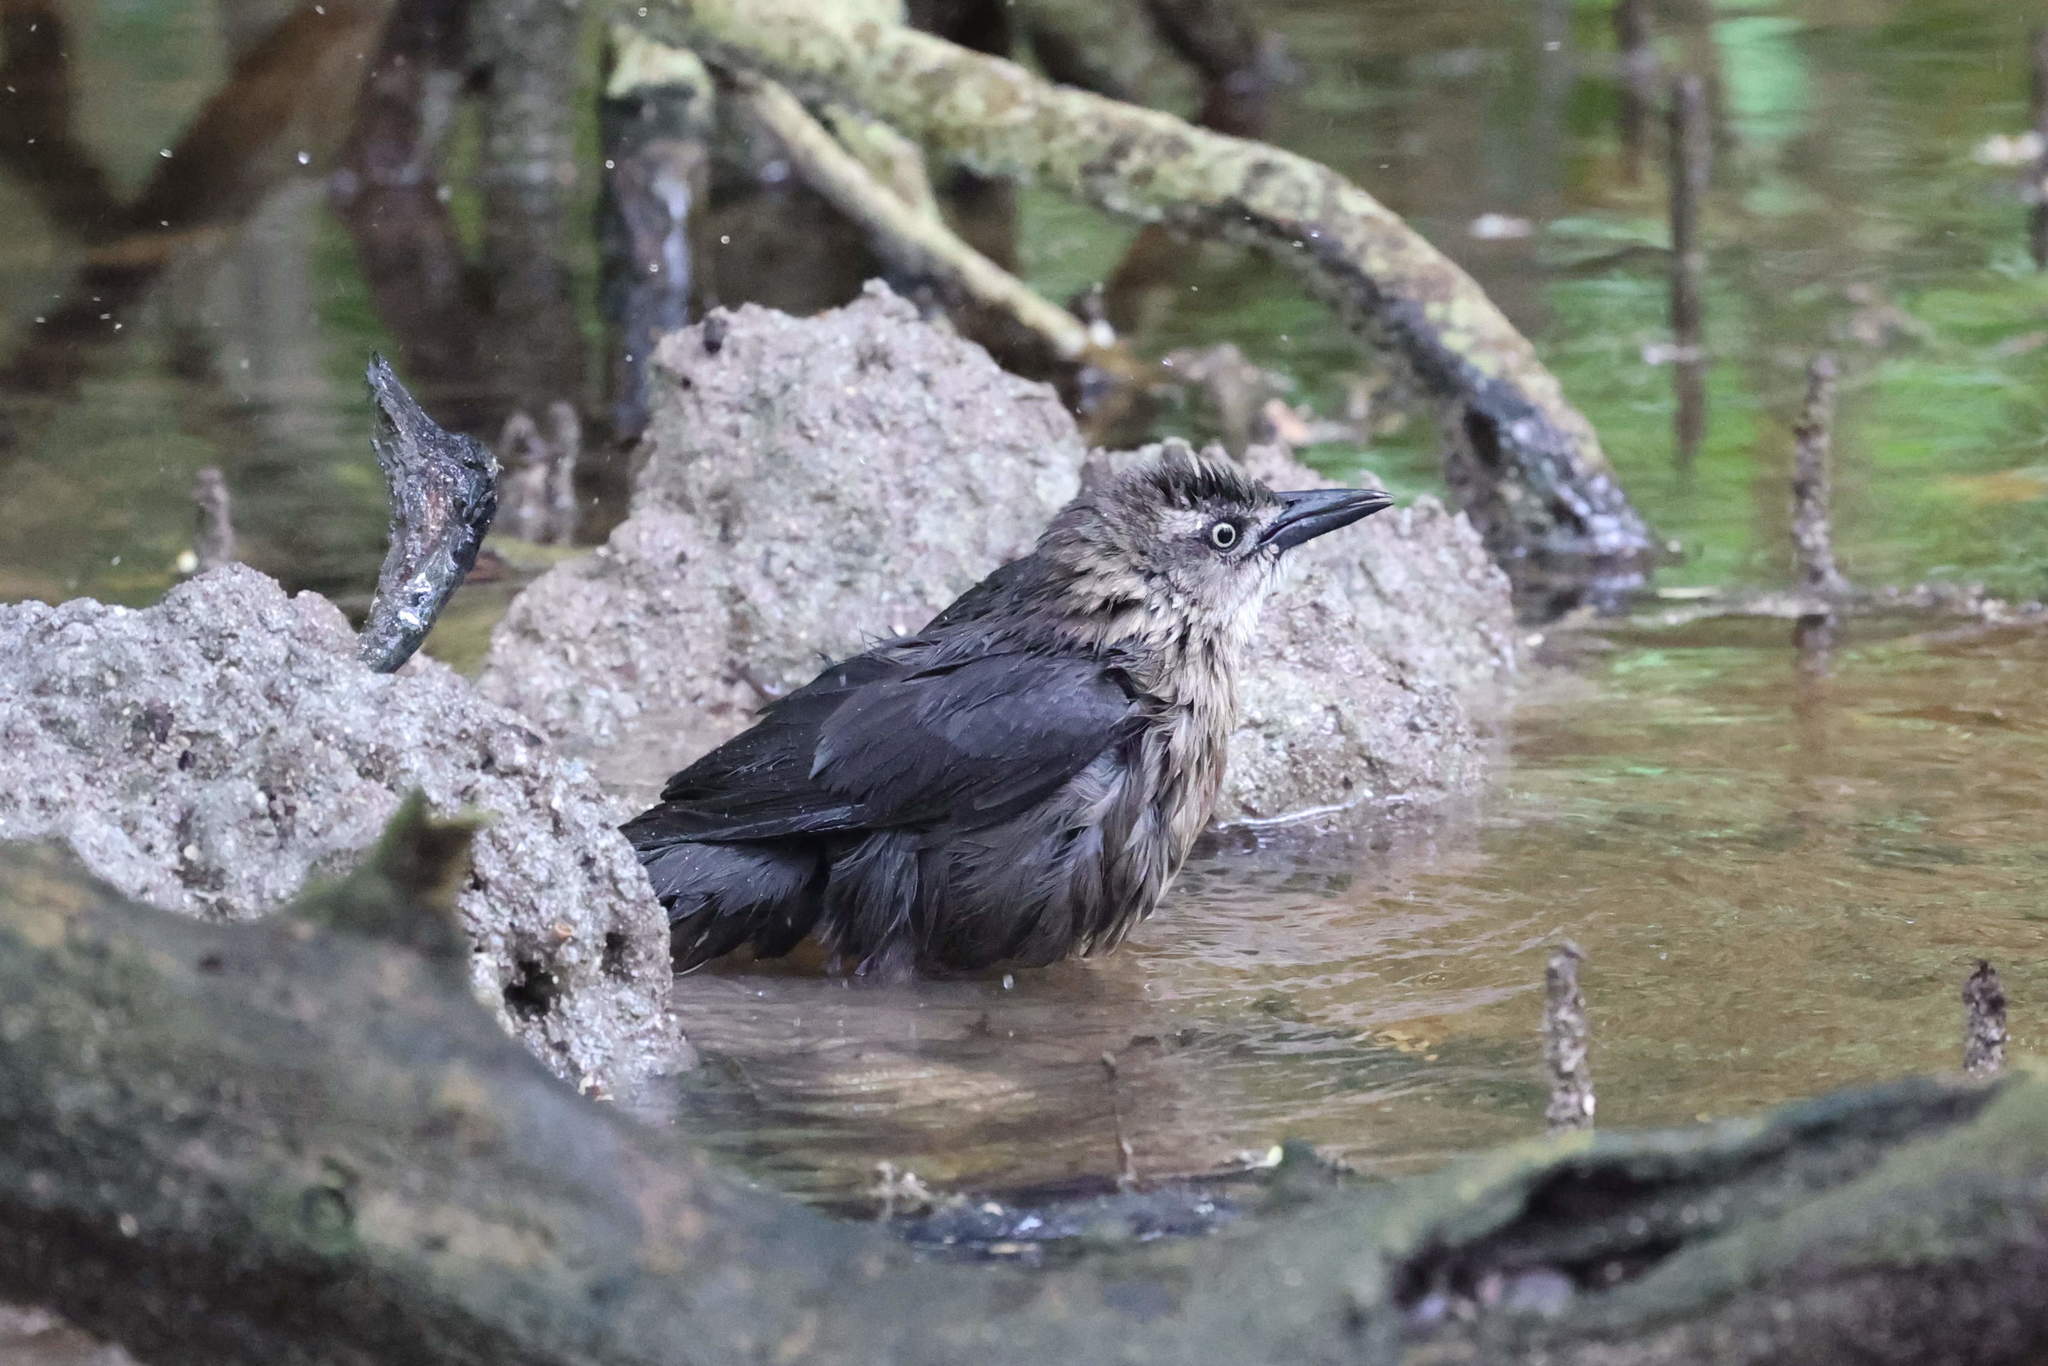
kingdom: Animalia
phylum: Chordata
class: Aves
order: Passeriformes
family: Icteridae
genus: Quiscalus
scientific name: Quiscalus lugubris
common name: Carib grackle
